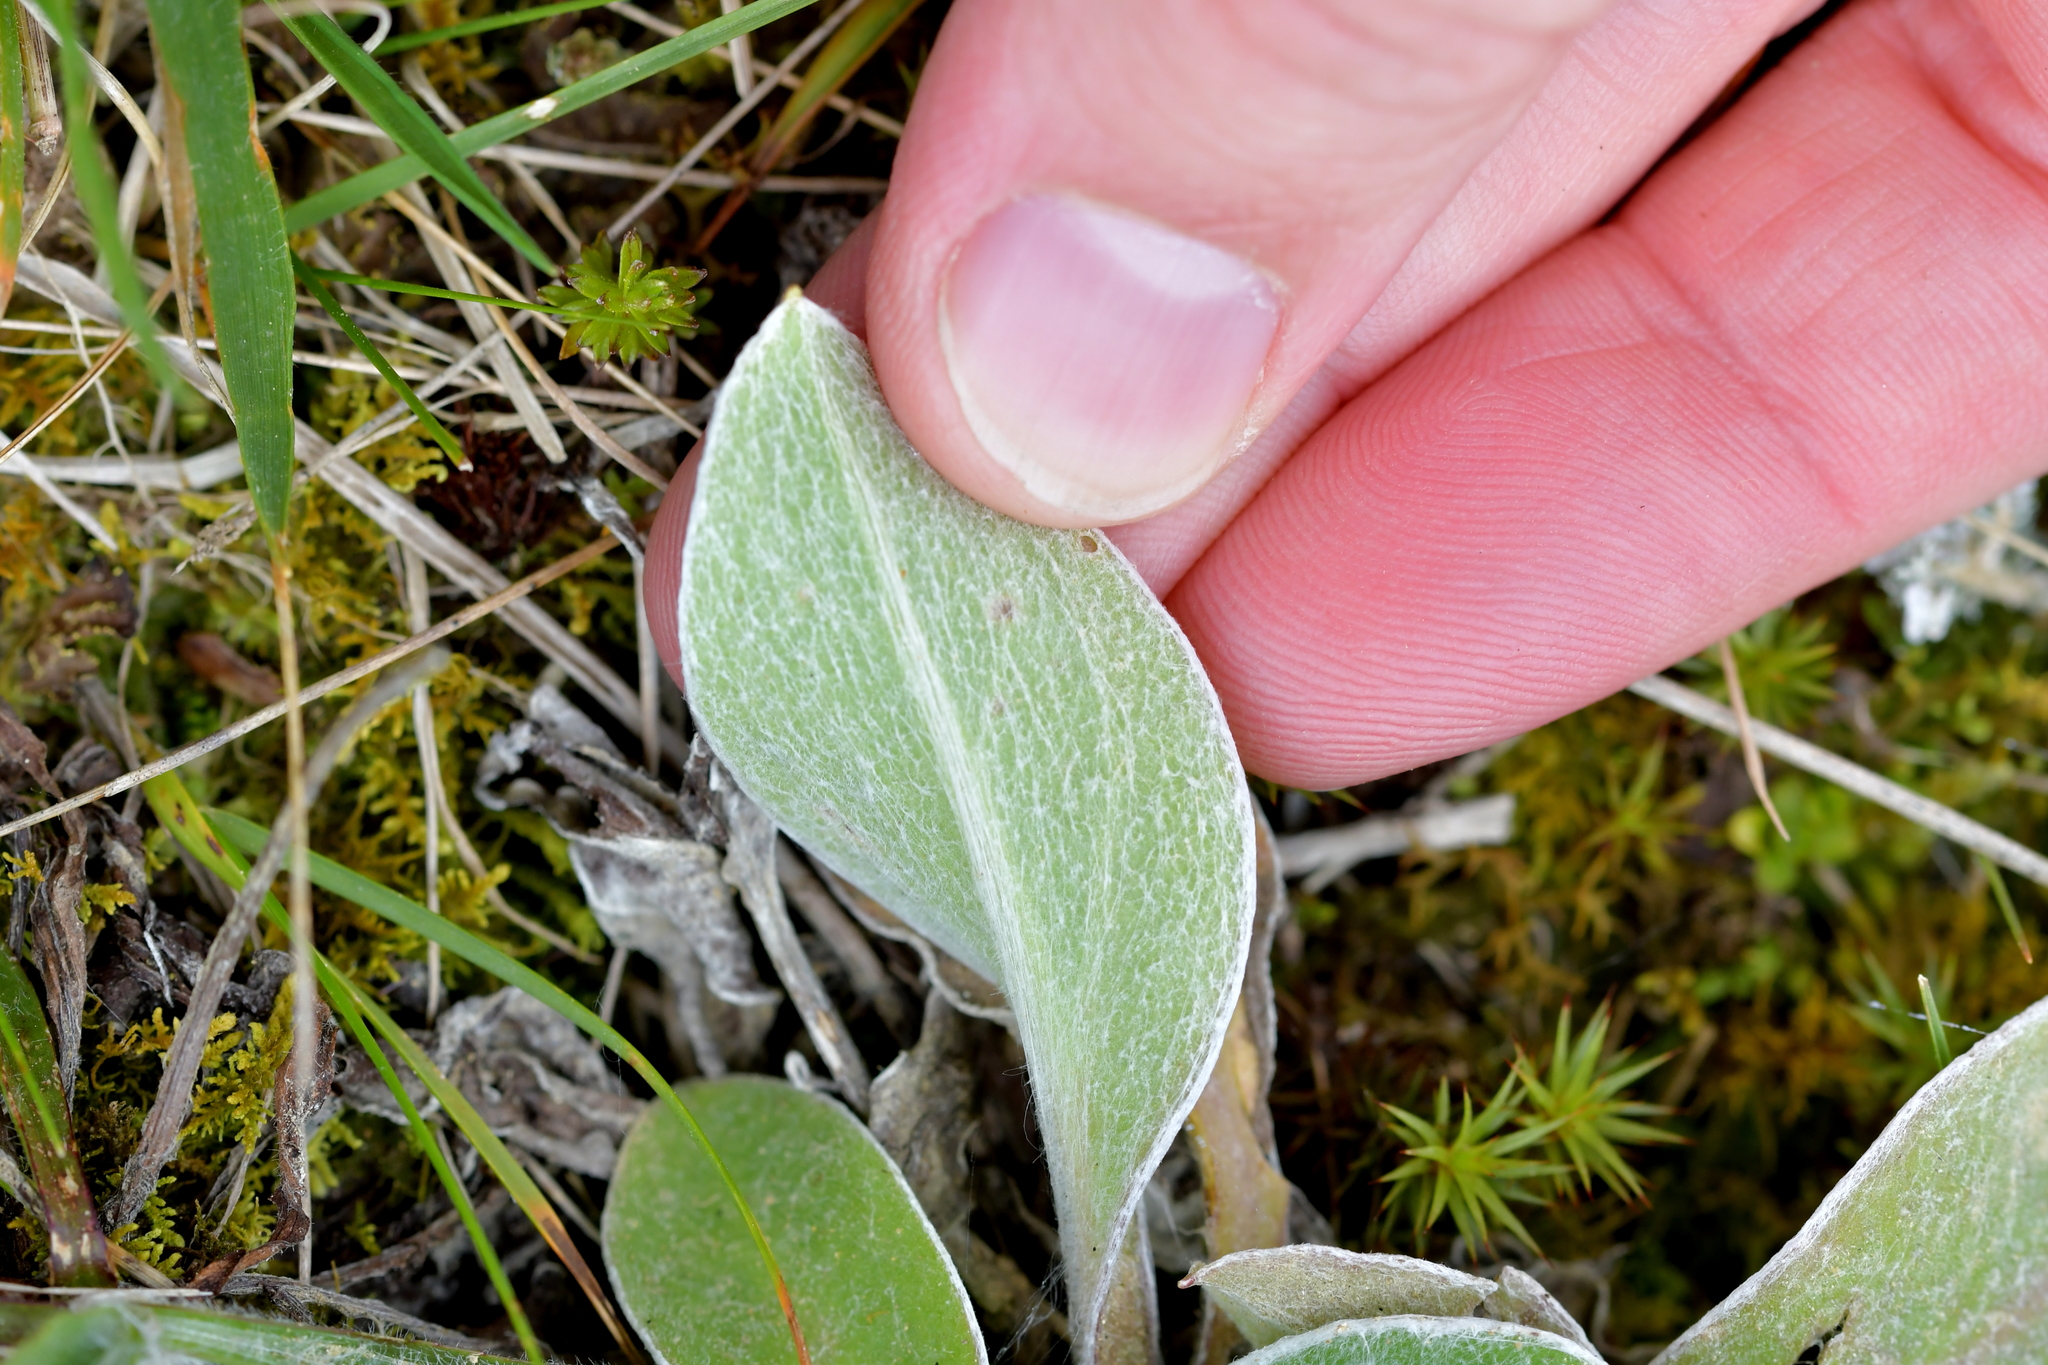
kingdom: Plantae
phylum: Tracheophyta
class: Magnoliopsida
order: Asterales
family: Asteraceae
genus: Craspedia
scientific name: Craspedia uniflora
